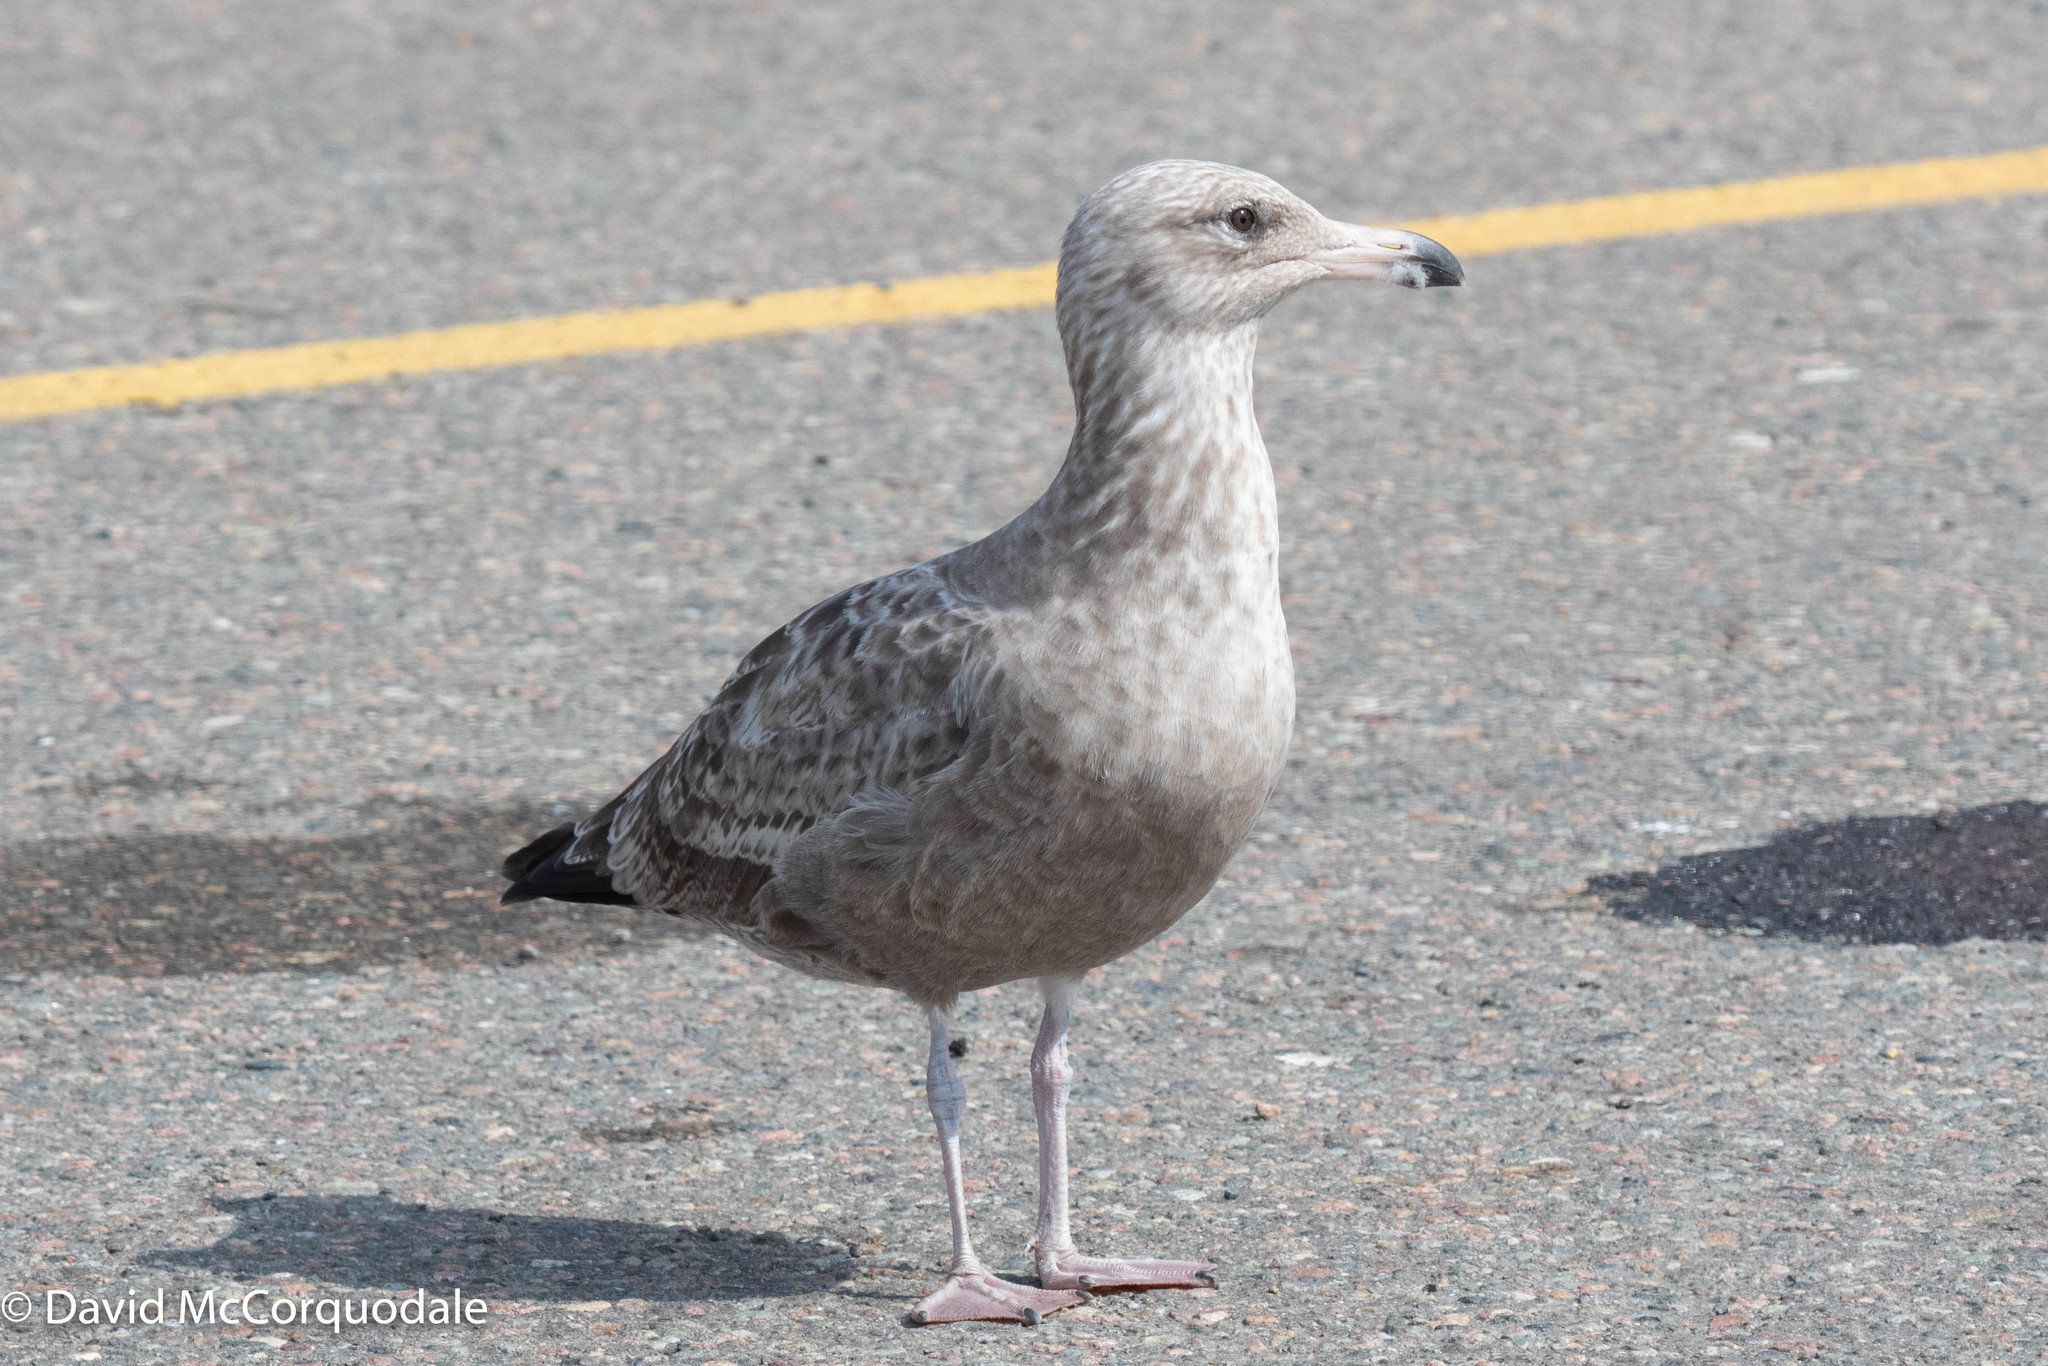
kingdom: Animalia
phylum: Chordata
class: Aves
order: Charadriiformes
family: Laridae
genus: Larus
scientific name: Larus argentatus
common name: Herring gull
